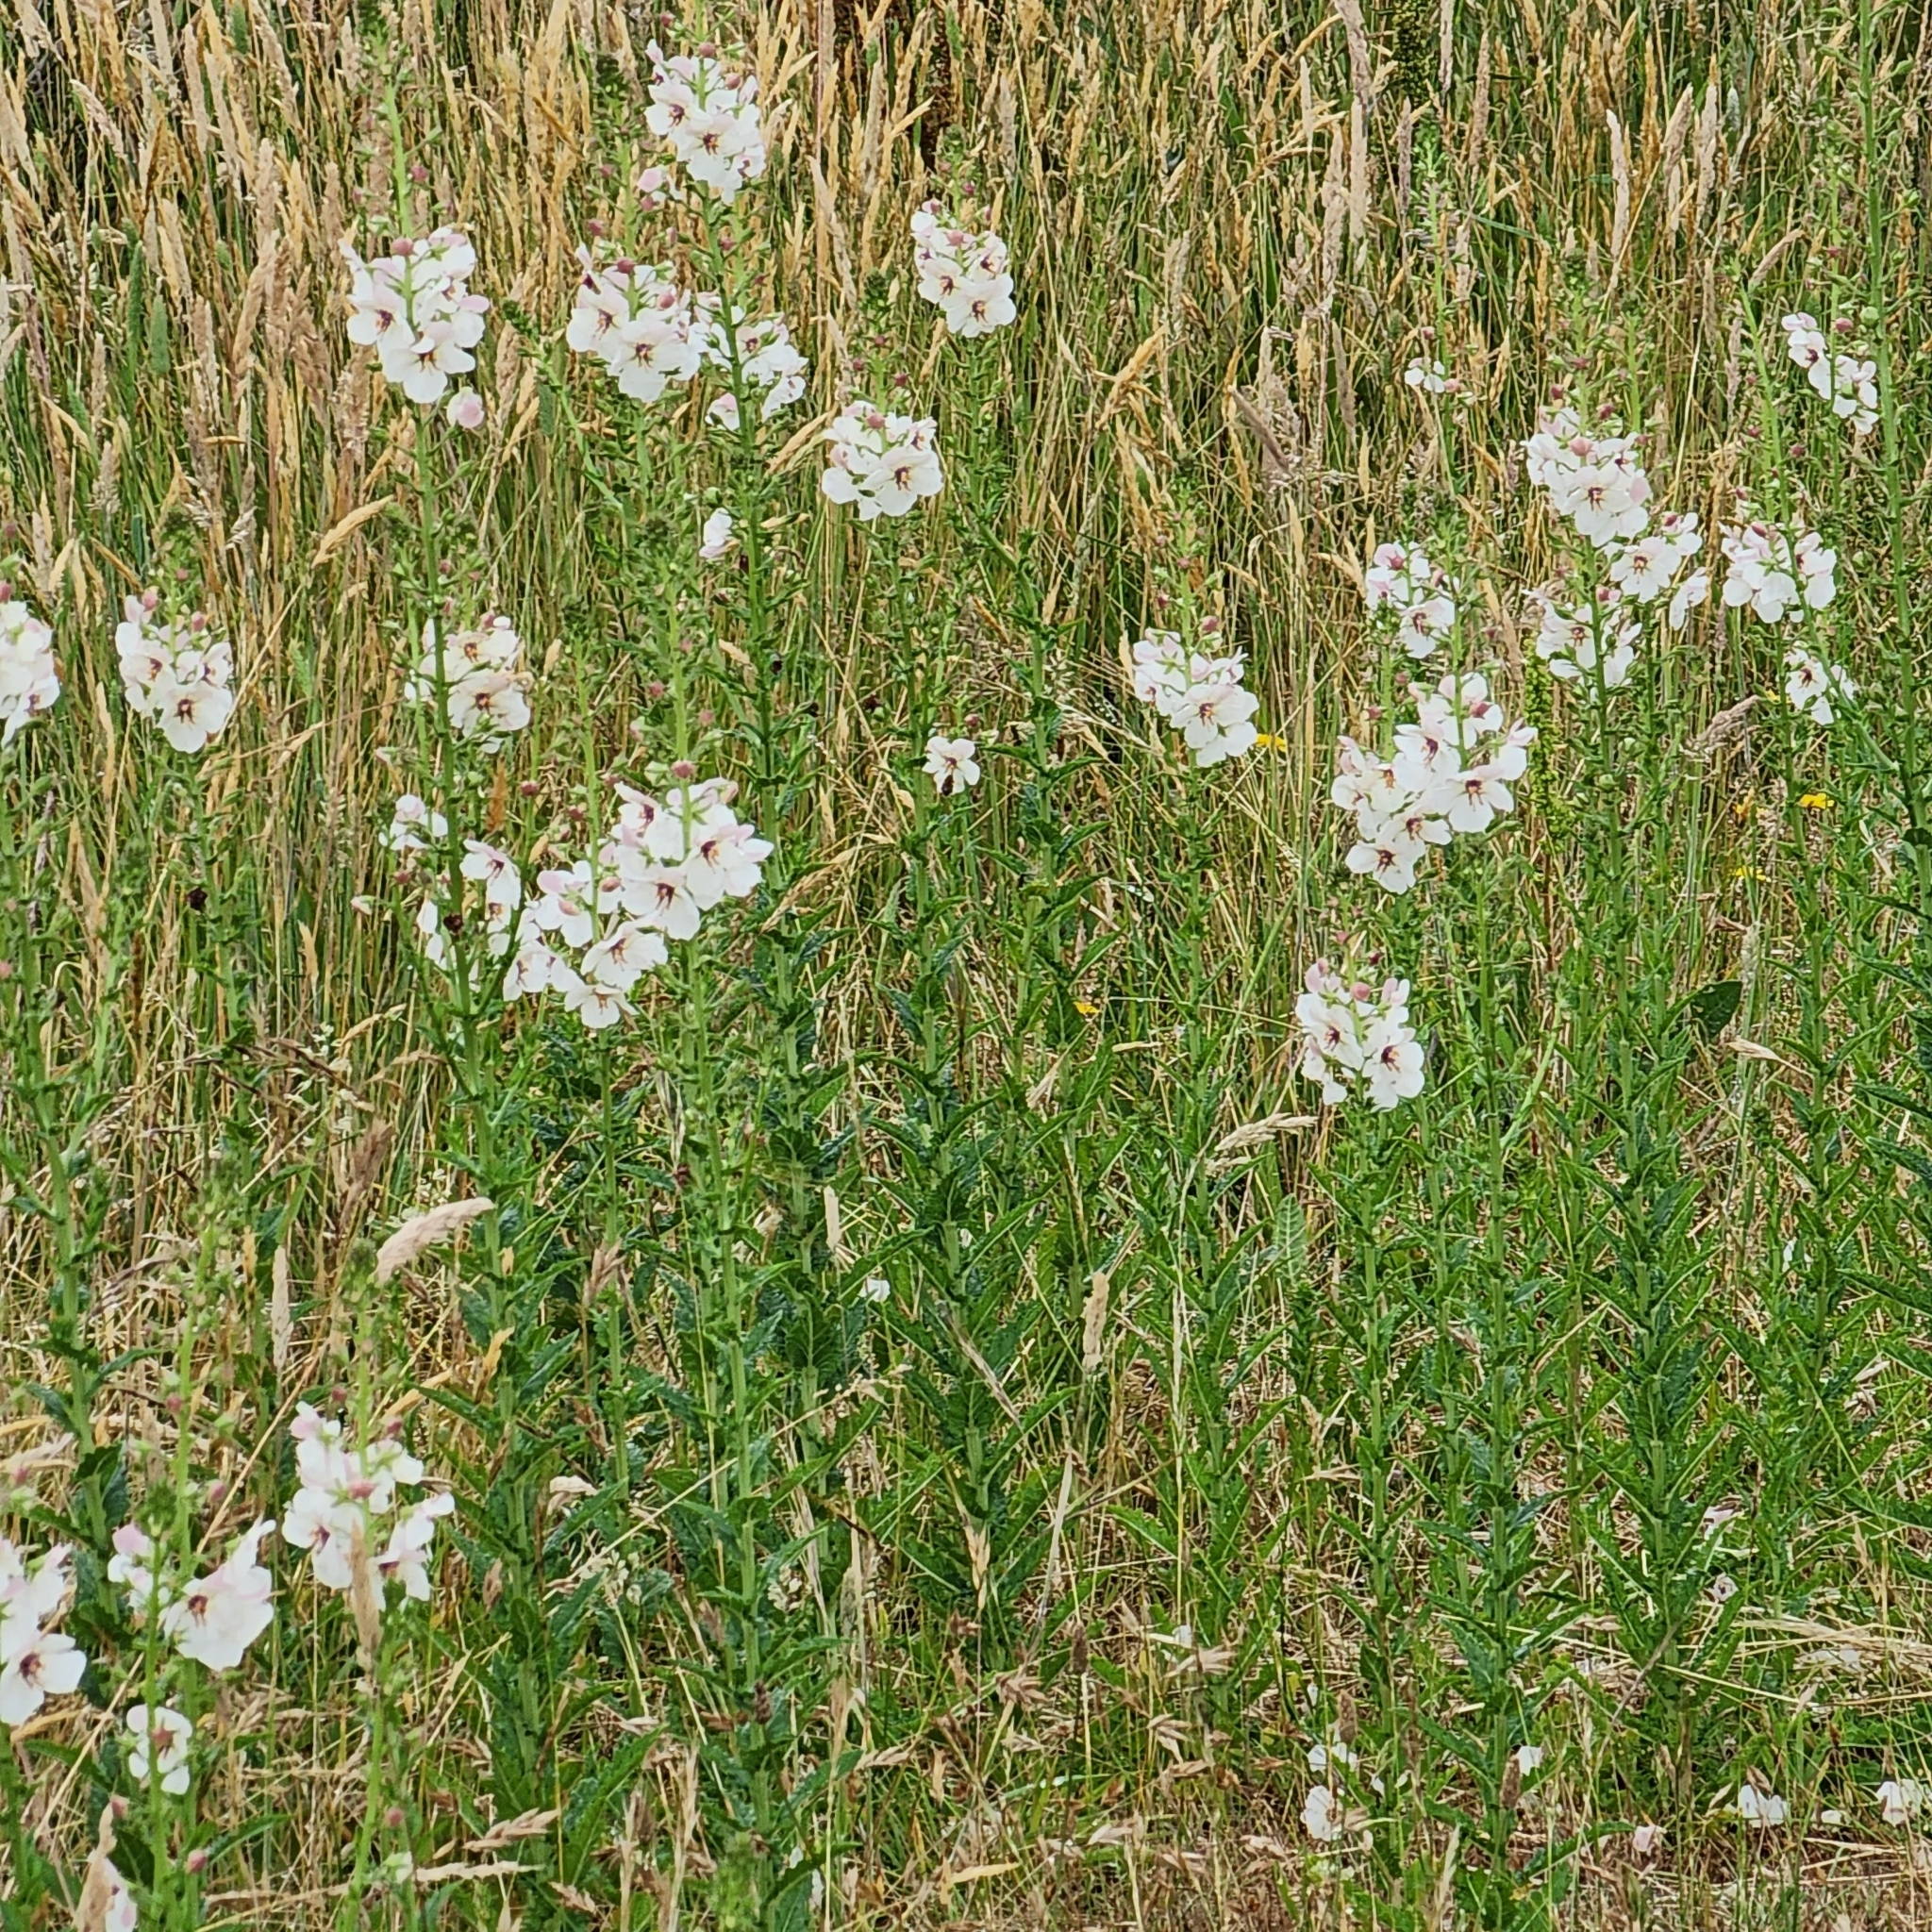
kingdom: Plantae
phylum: Tracheophyta
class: Magnoliopsida
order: Lamiales
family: Scrophulariaceae
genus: Verbascum
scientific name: Verbascum blattaria
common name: Moth mullein
